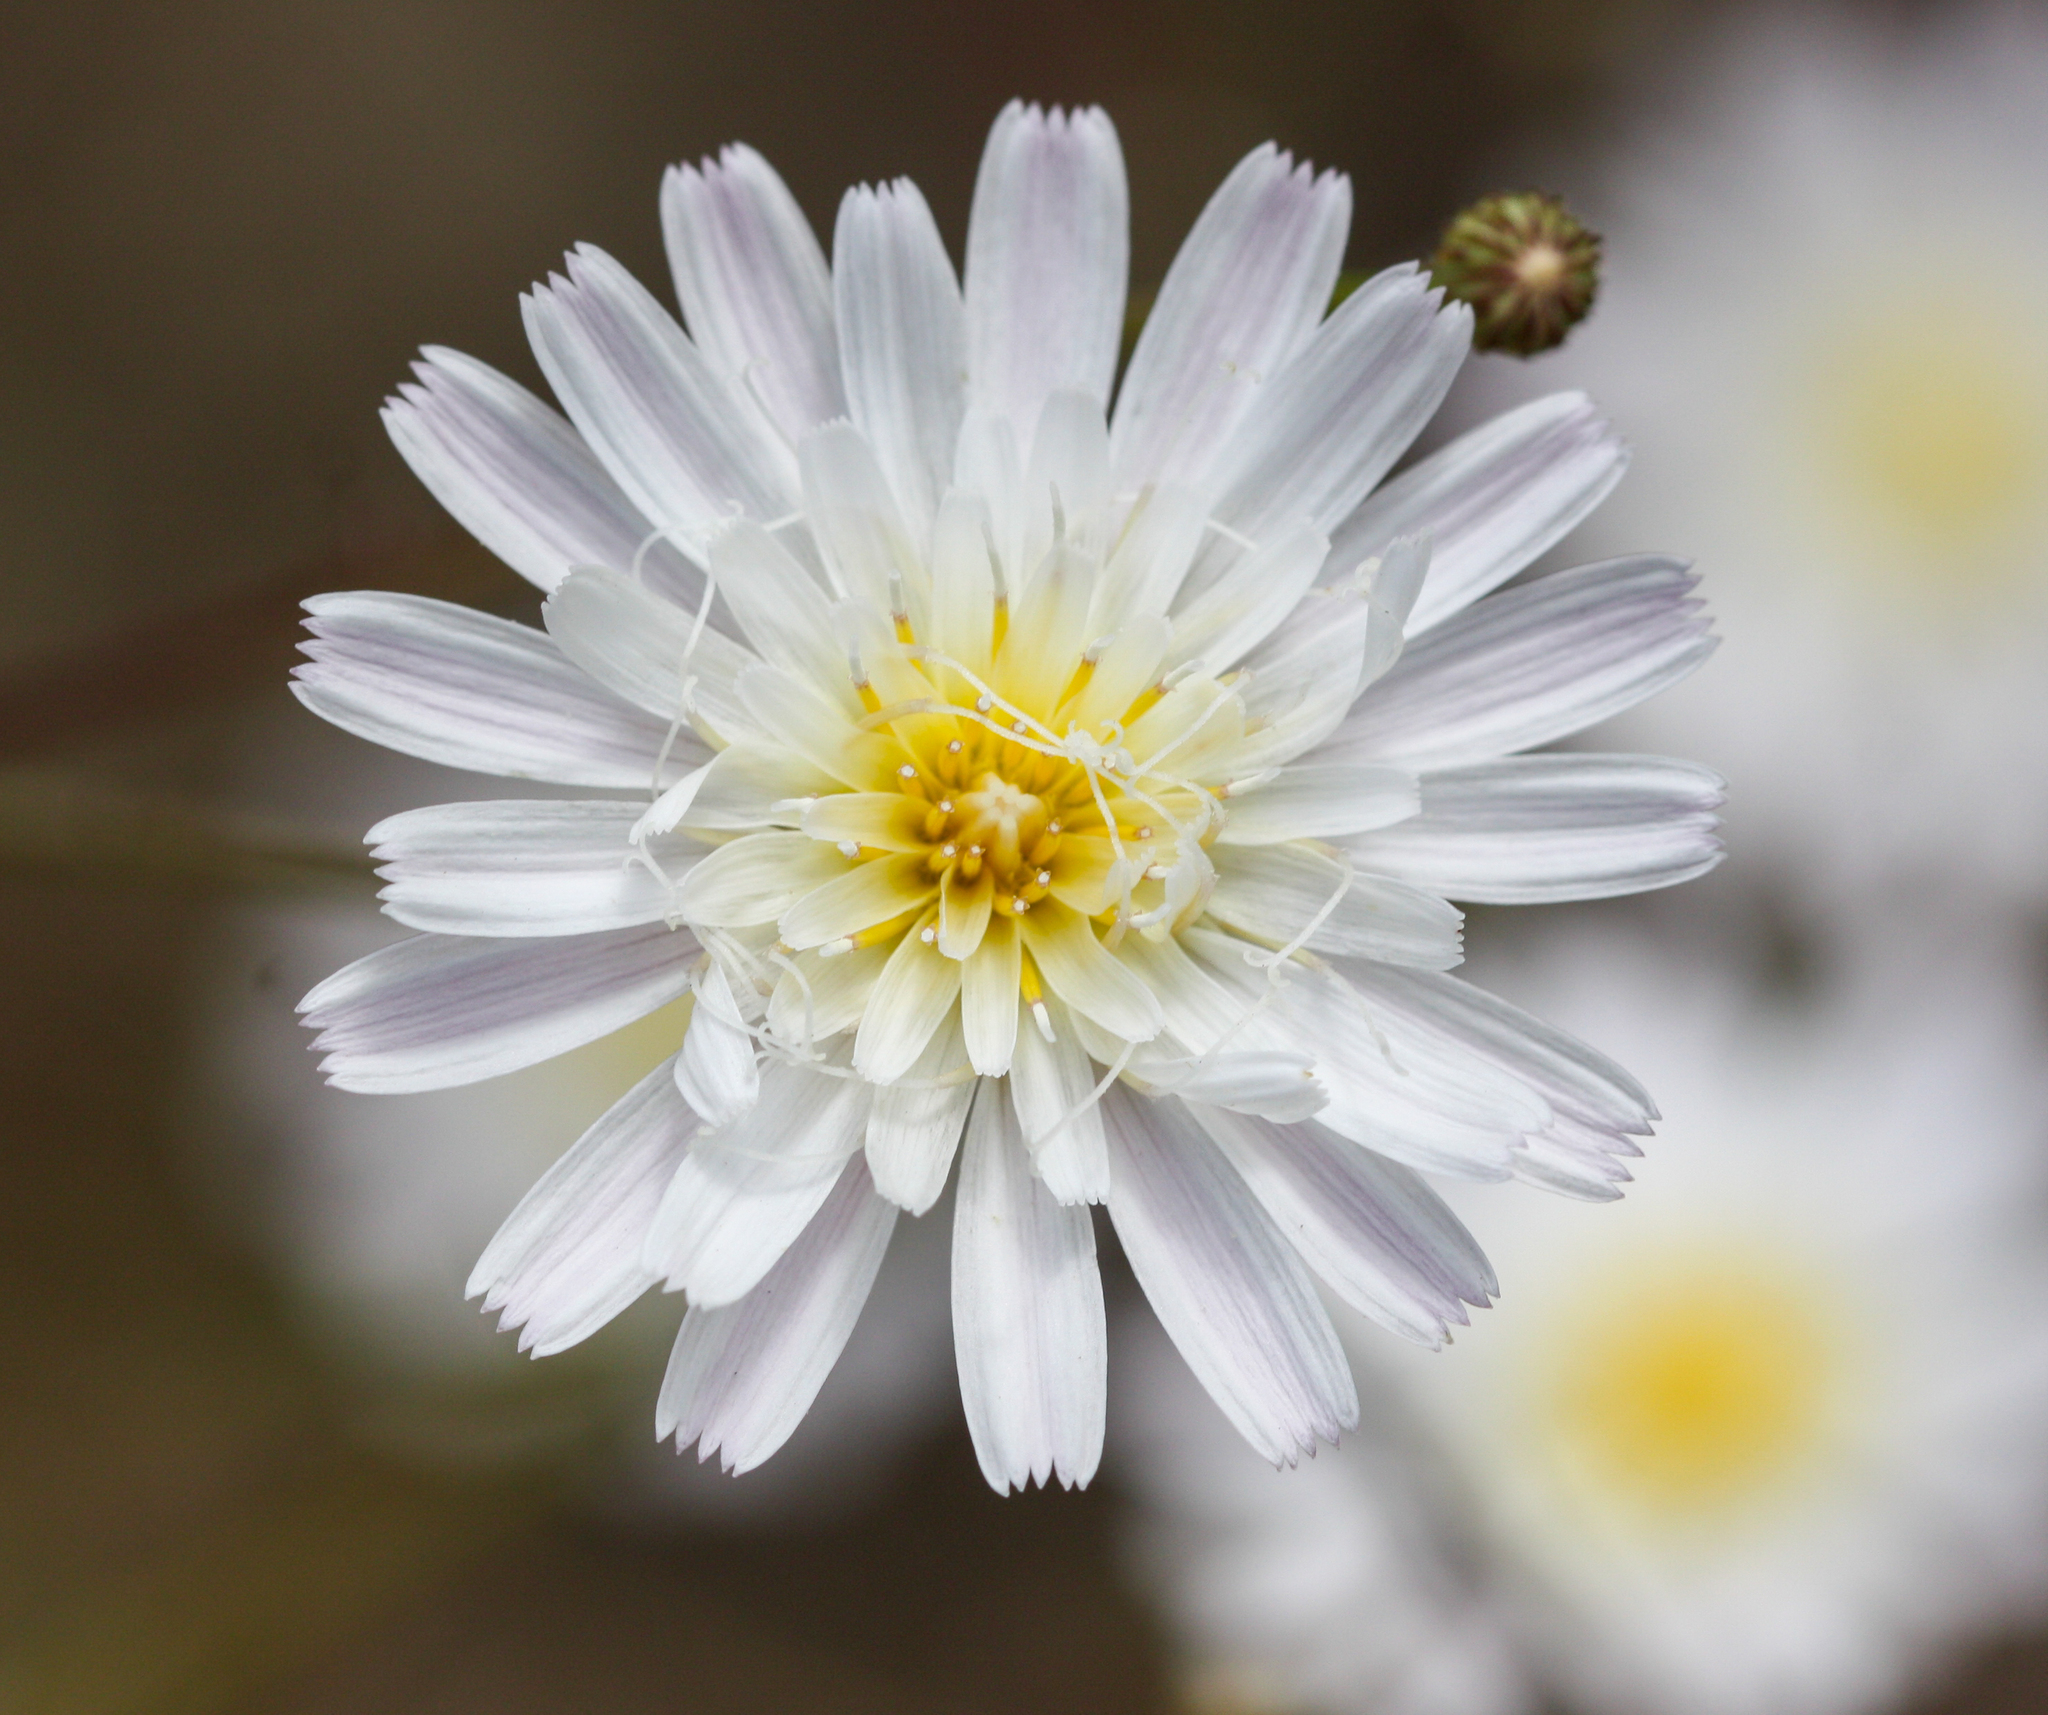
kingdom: Plantae
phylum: Tracheophyta
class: Magnoliopsida
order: Asterales
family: Asteraceae
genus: Malacothrix
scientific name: Malacothrix saxatilis
